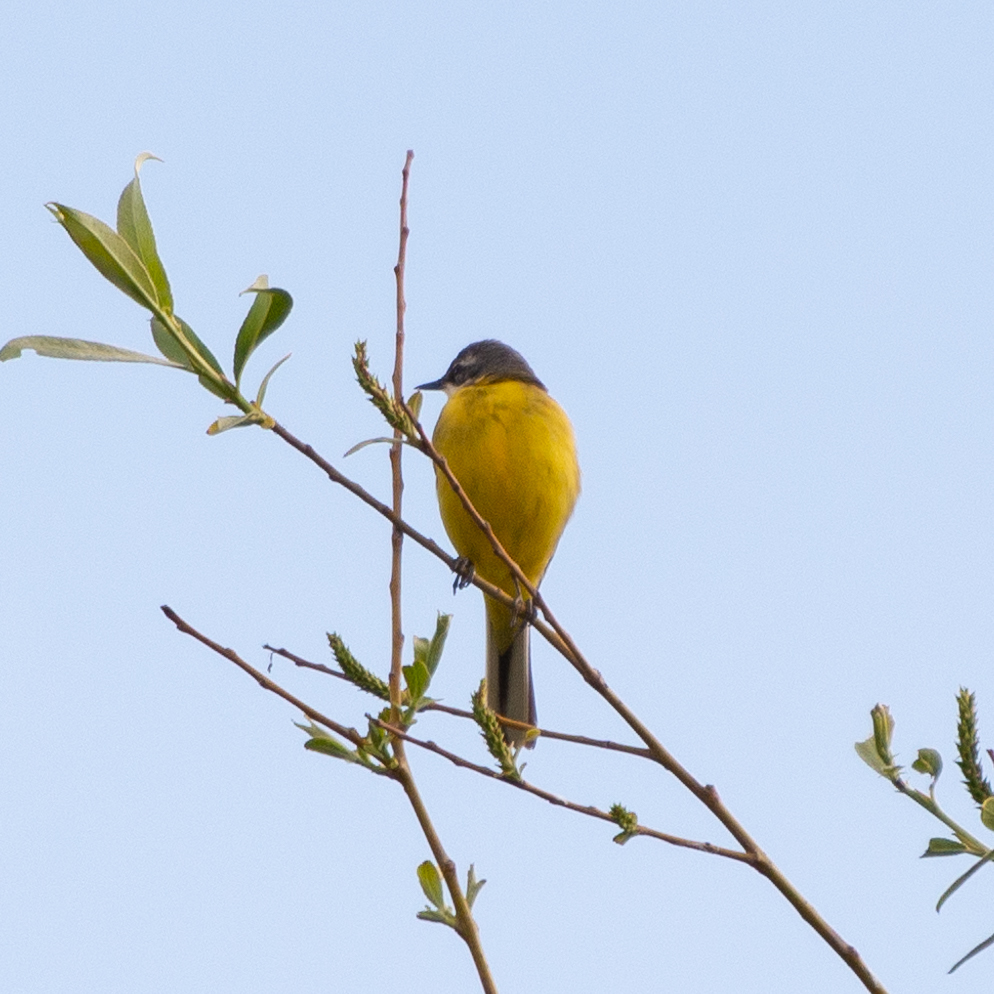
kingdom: Animalia
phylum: Chordata
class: Aves
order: Passeriformes
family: Motacillidae
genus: Motacilla
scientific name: Motacilla flava
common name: Western yellow wagtail
